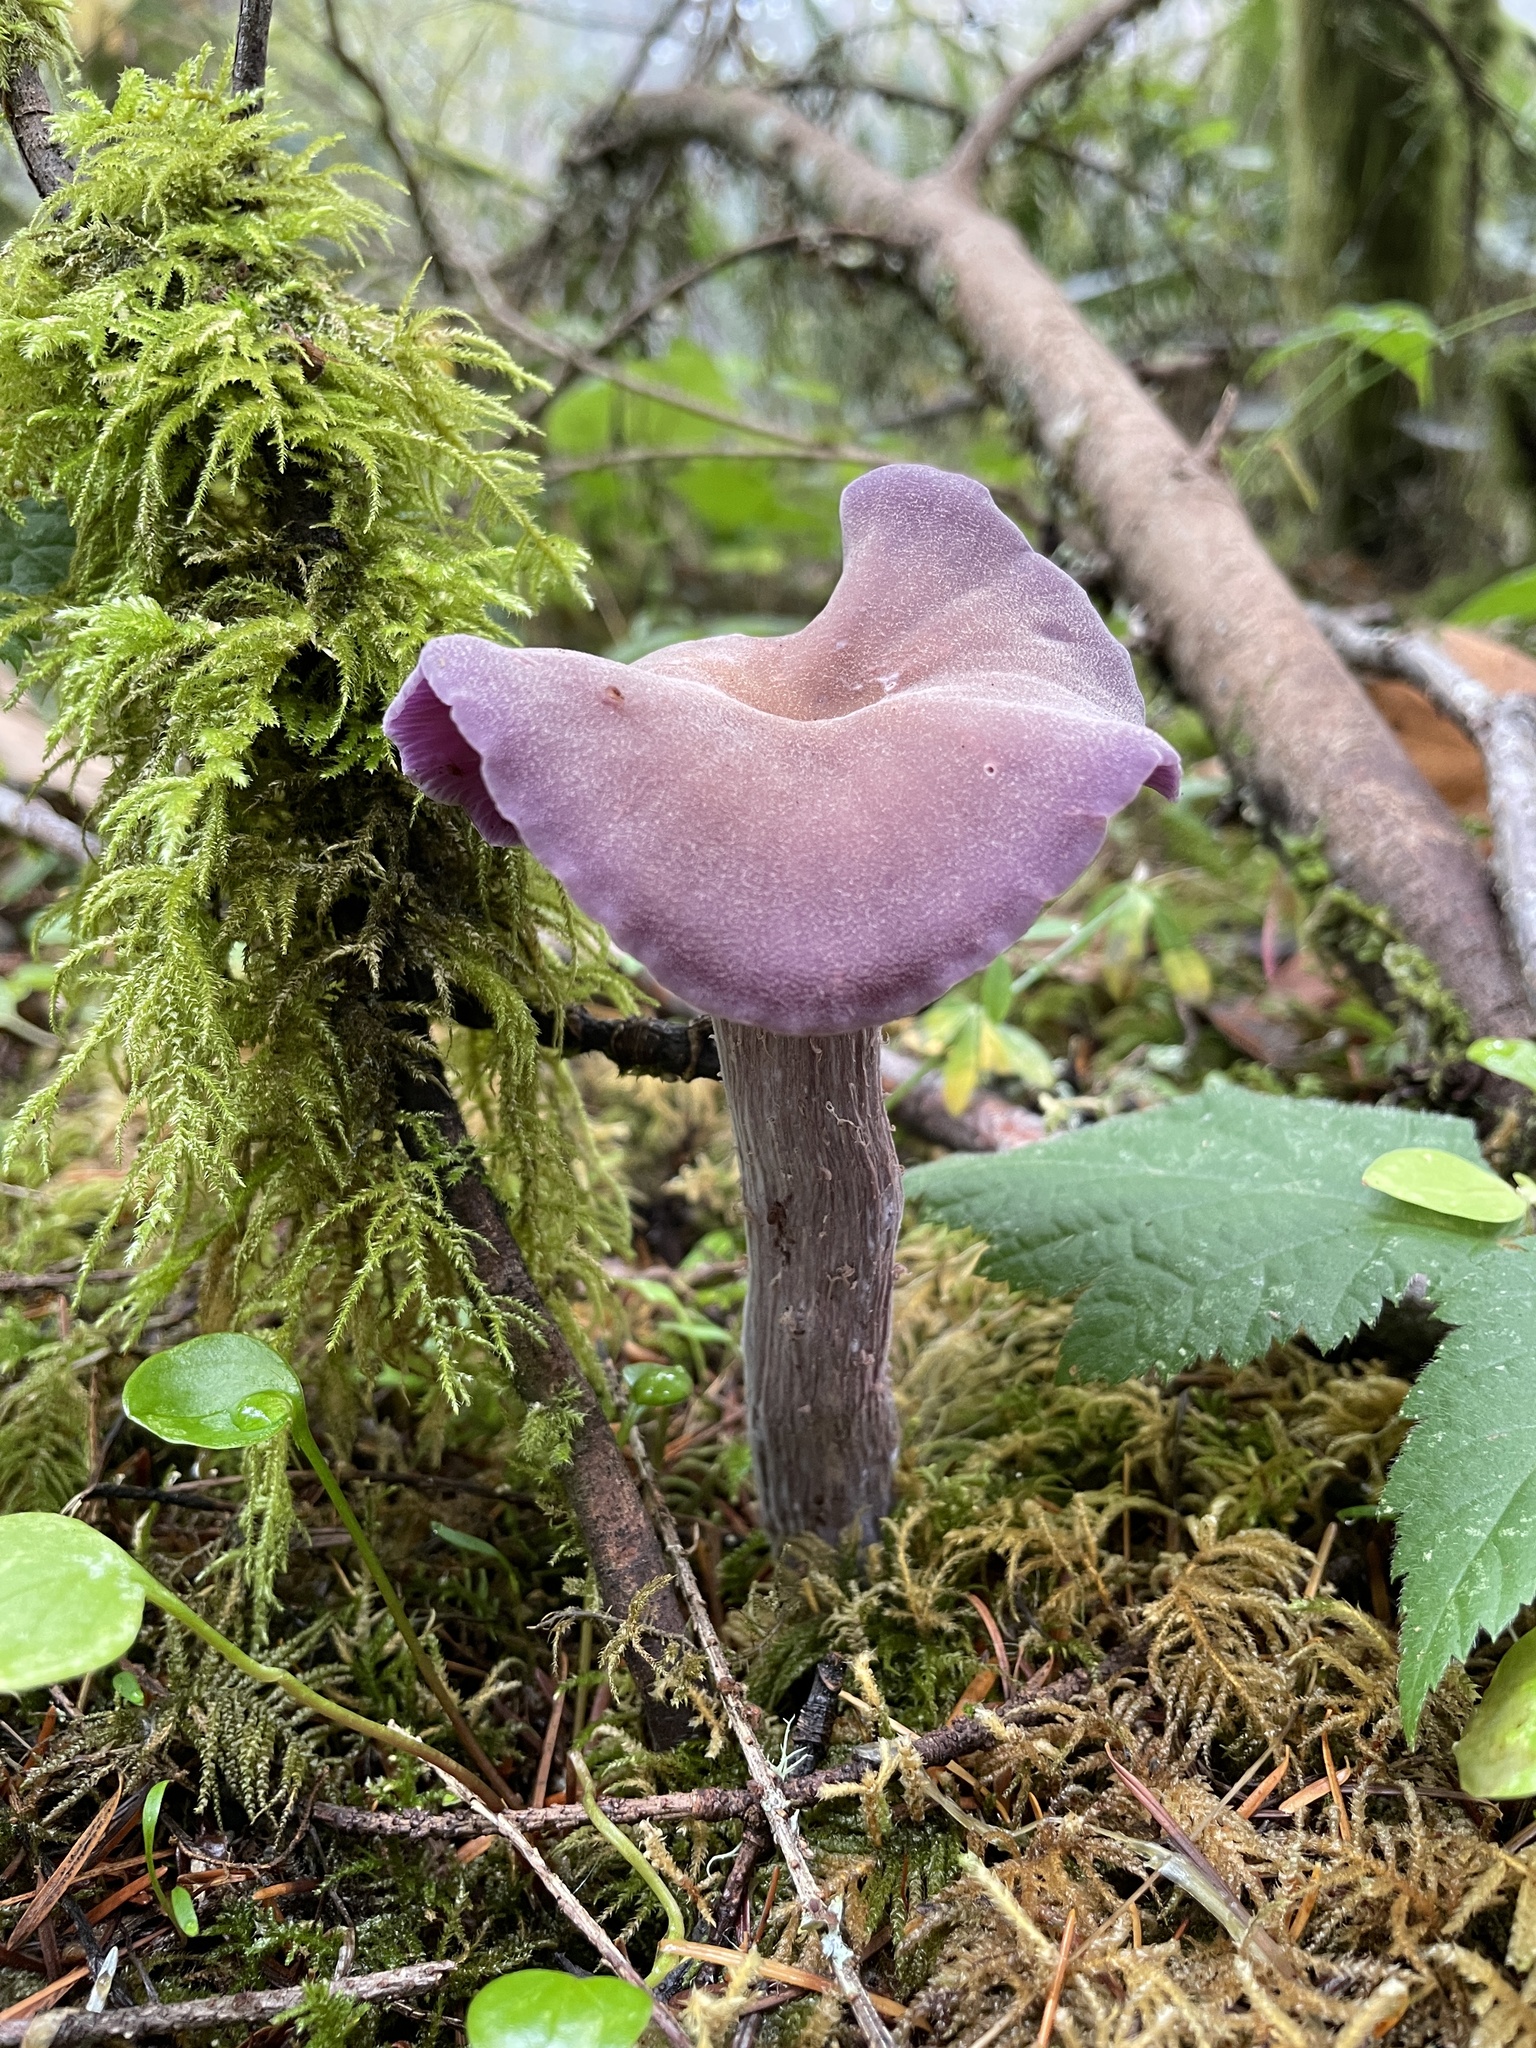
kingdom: Fungi
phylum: Basidiomycota
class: Agaricomycetes
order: Agaricales
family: Hydnangiaceae
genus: Laccaria
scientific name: Laccaria amethysteo-occidentalis
